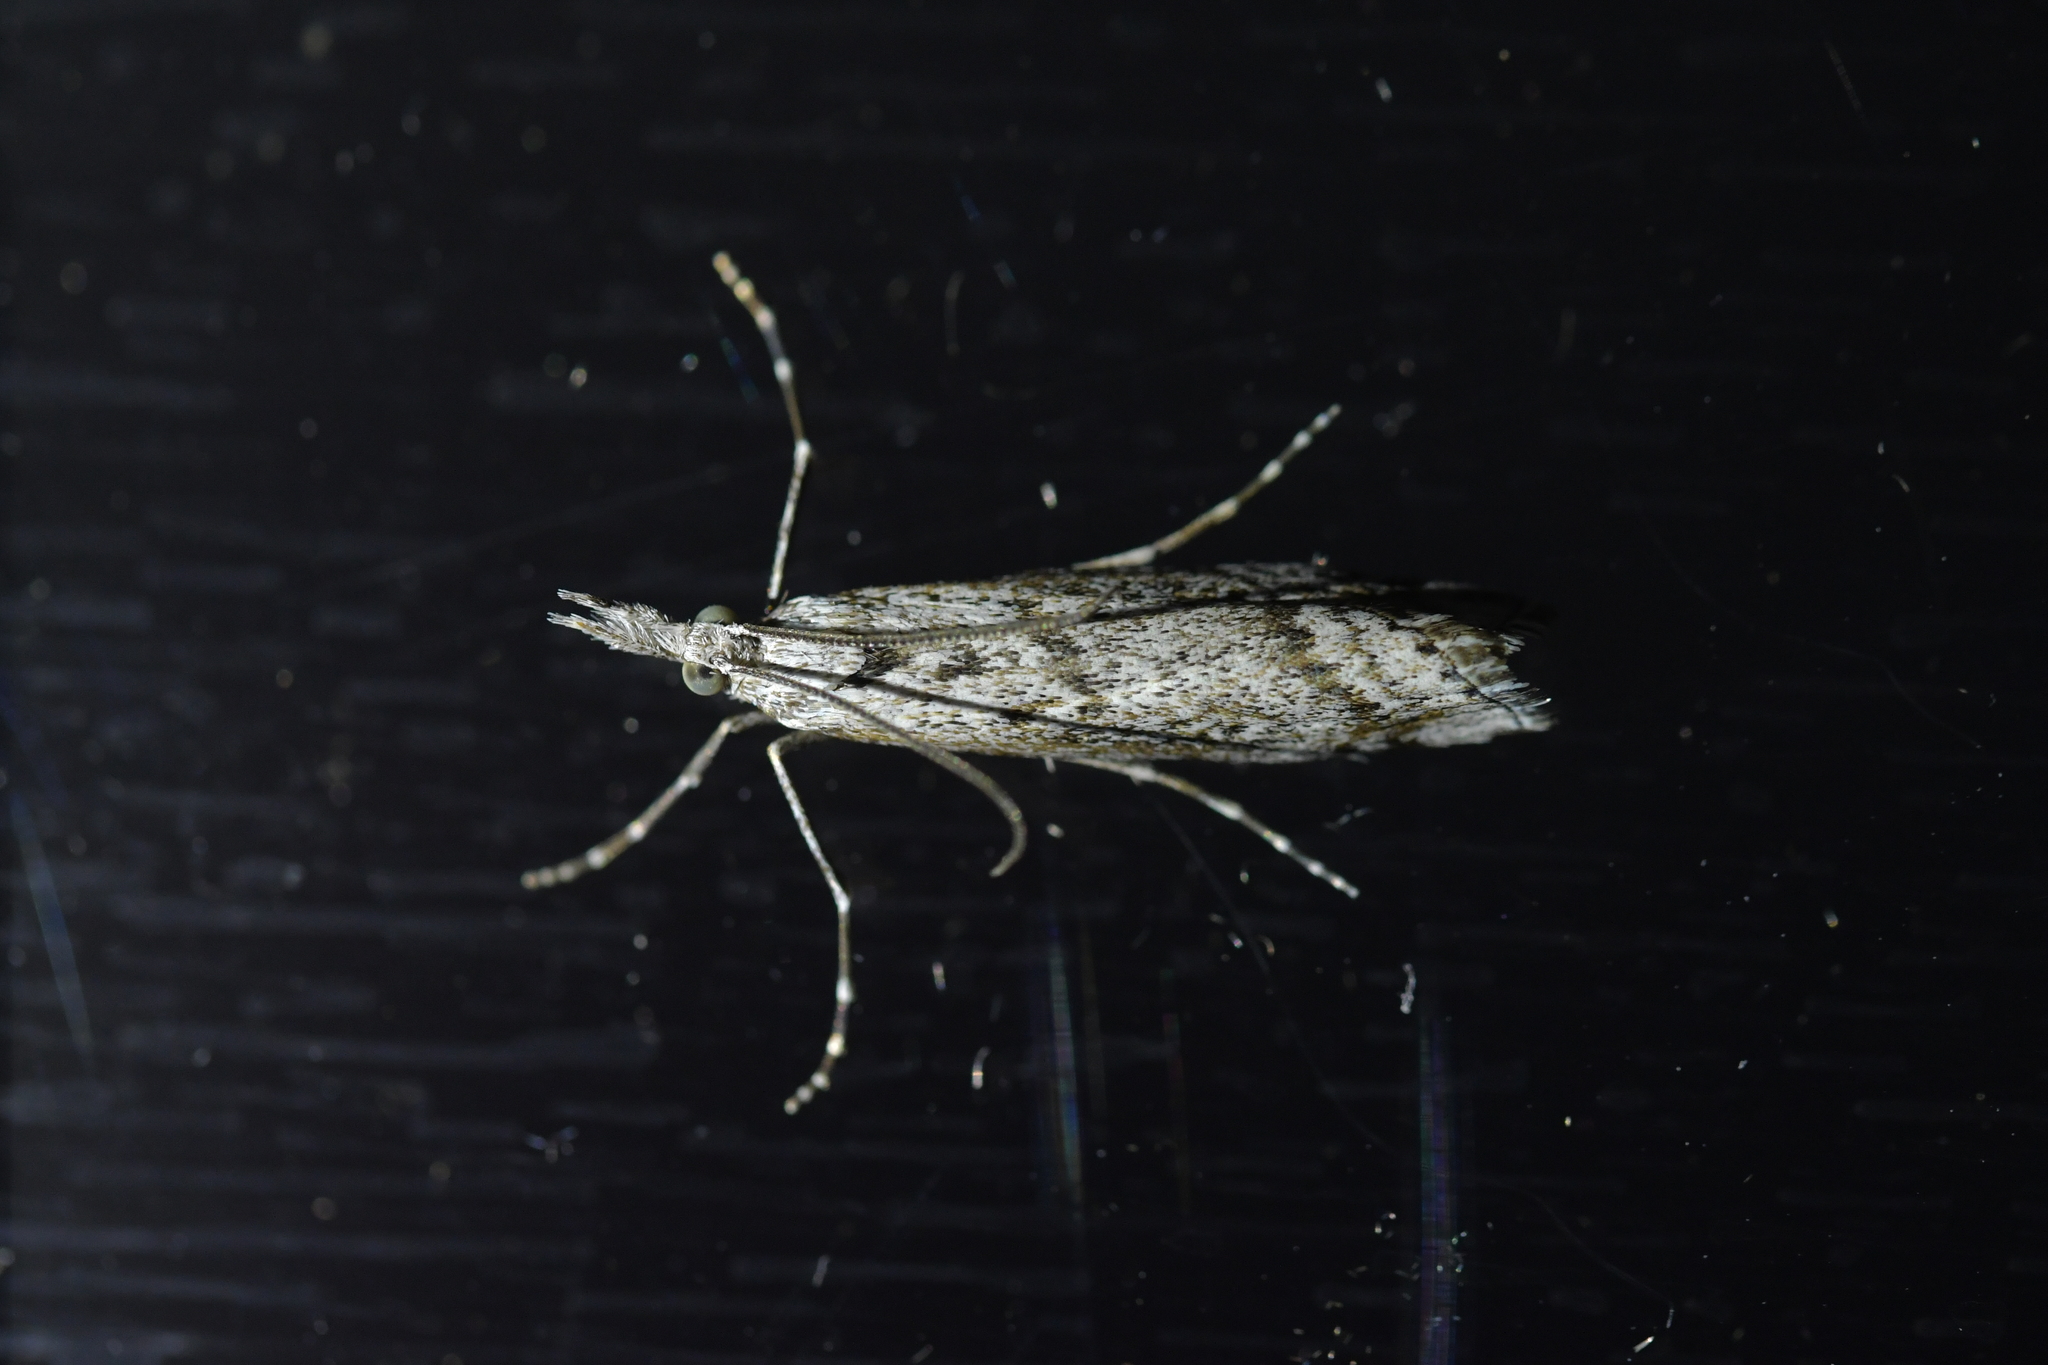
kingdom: Animalia
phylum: Arthropoda
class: Insecta
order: Lepidoptera
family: Crambidae
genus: Orocrambus
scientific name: Orocrambus cyclopicus
